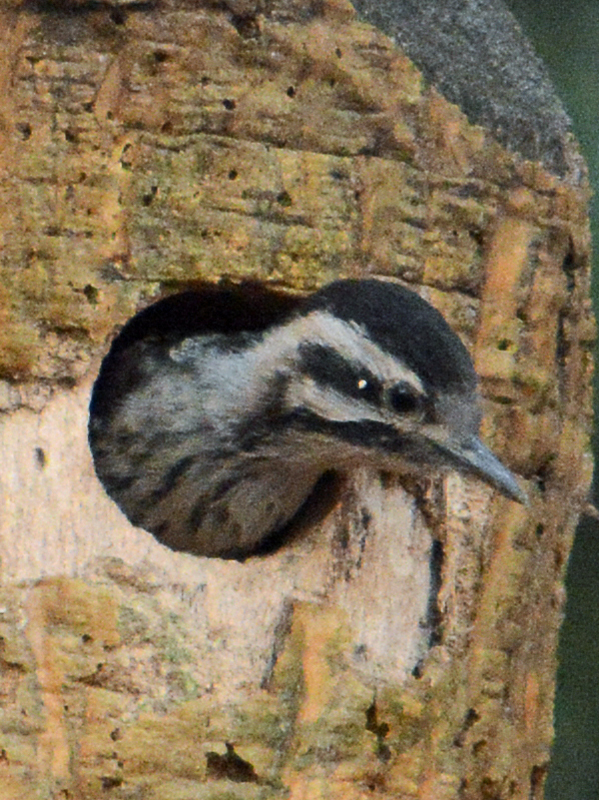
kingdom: Animalia
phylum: Chordata
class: Aves
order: Piciformes
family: Picidae
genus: Dryobates
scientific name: Dryobates scalaris
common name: Ladder-backed woodpecker
